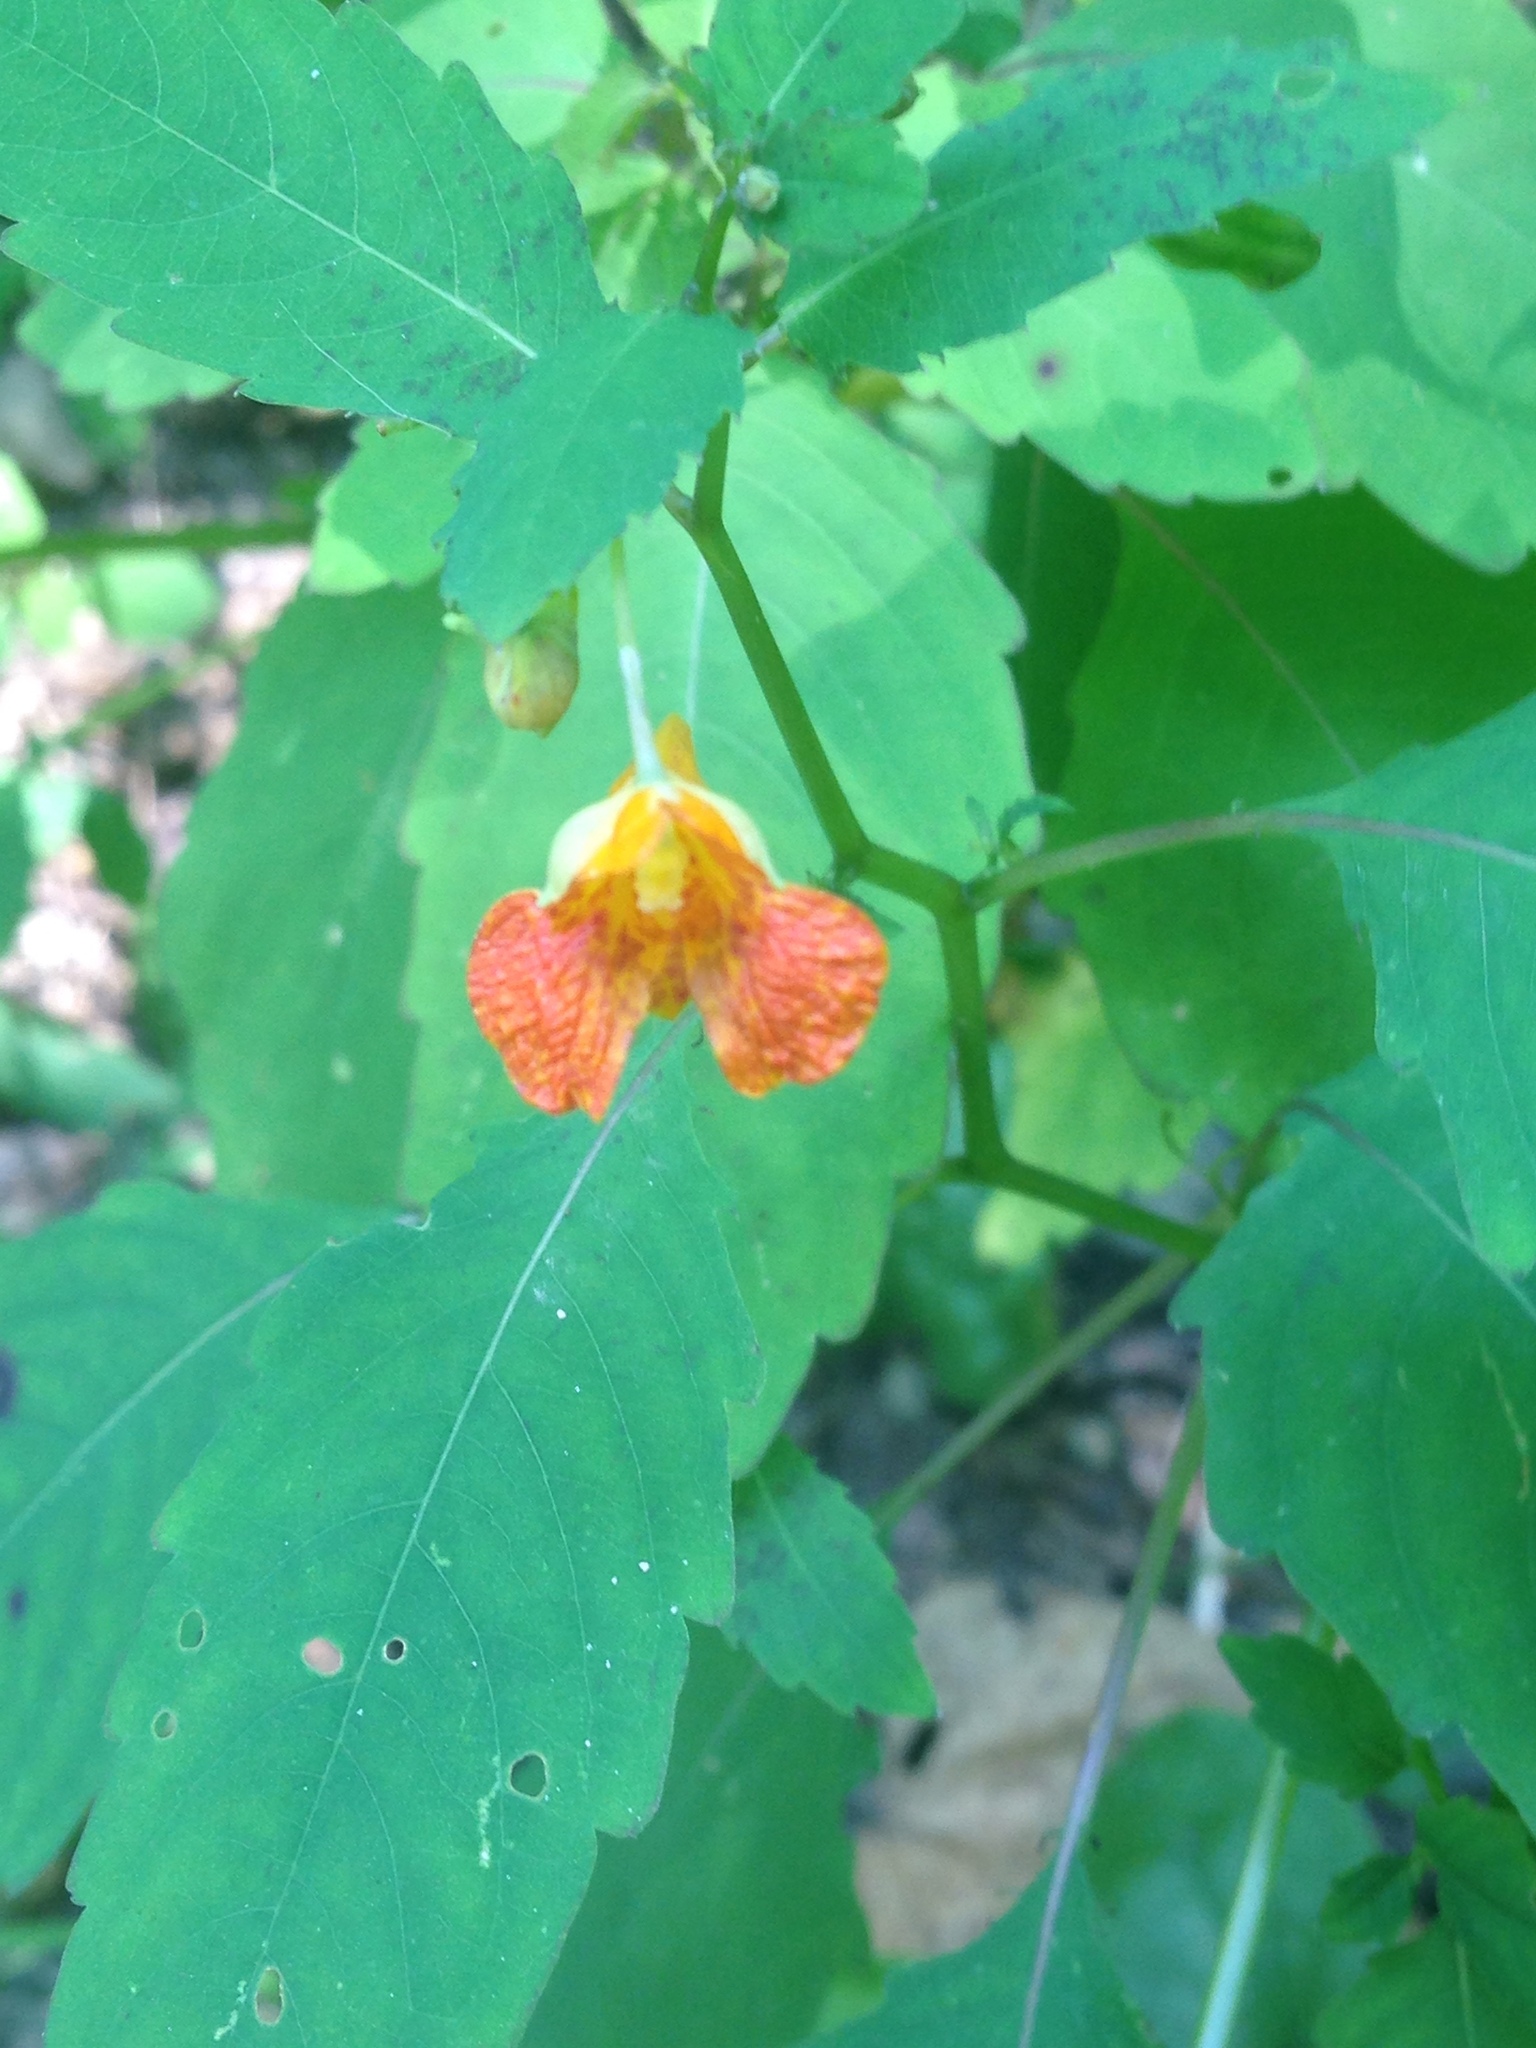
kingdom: Plantae
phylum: Tracheophyta
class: Magnoliopsida
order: Ericales
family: Balsaminaceae
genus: Impatiens
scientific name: Impatiens capensis
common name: Orange balsam
